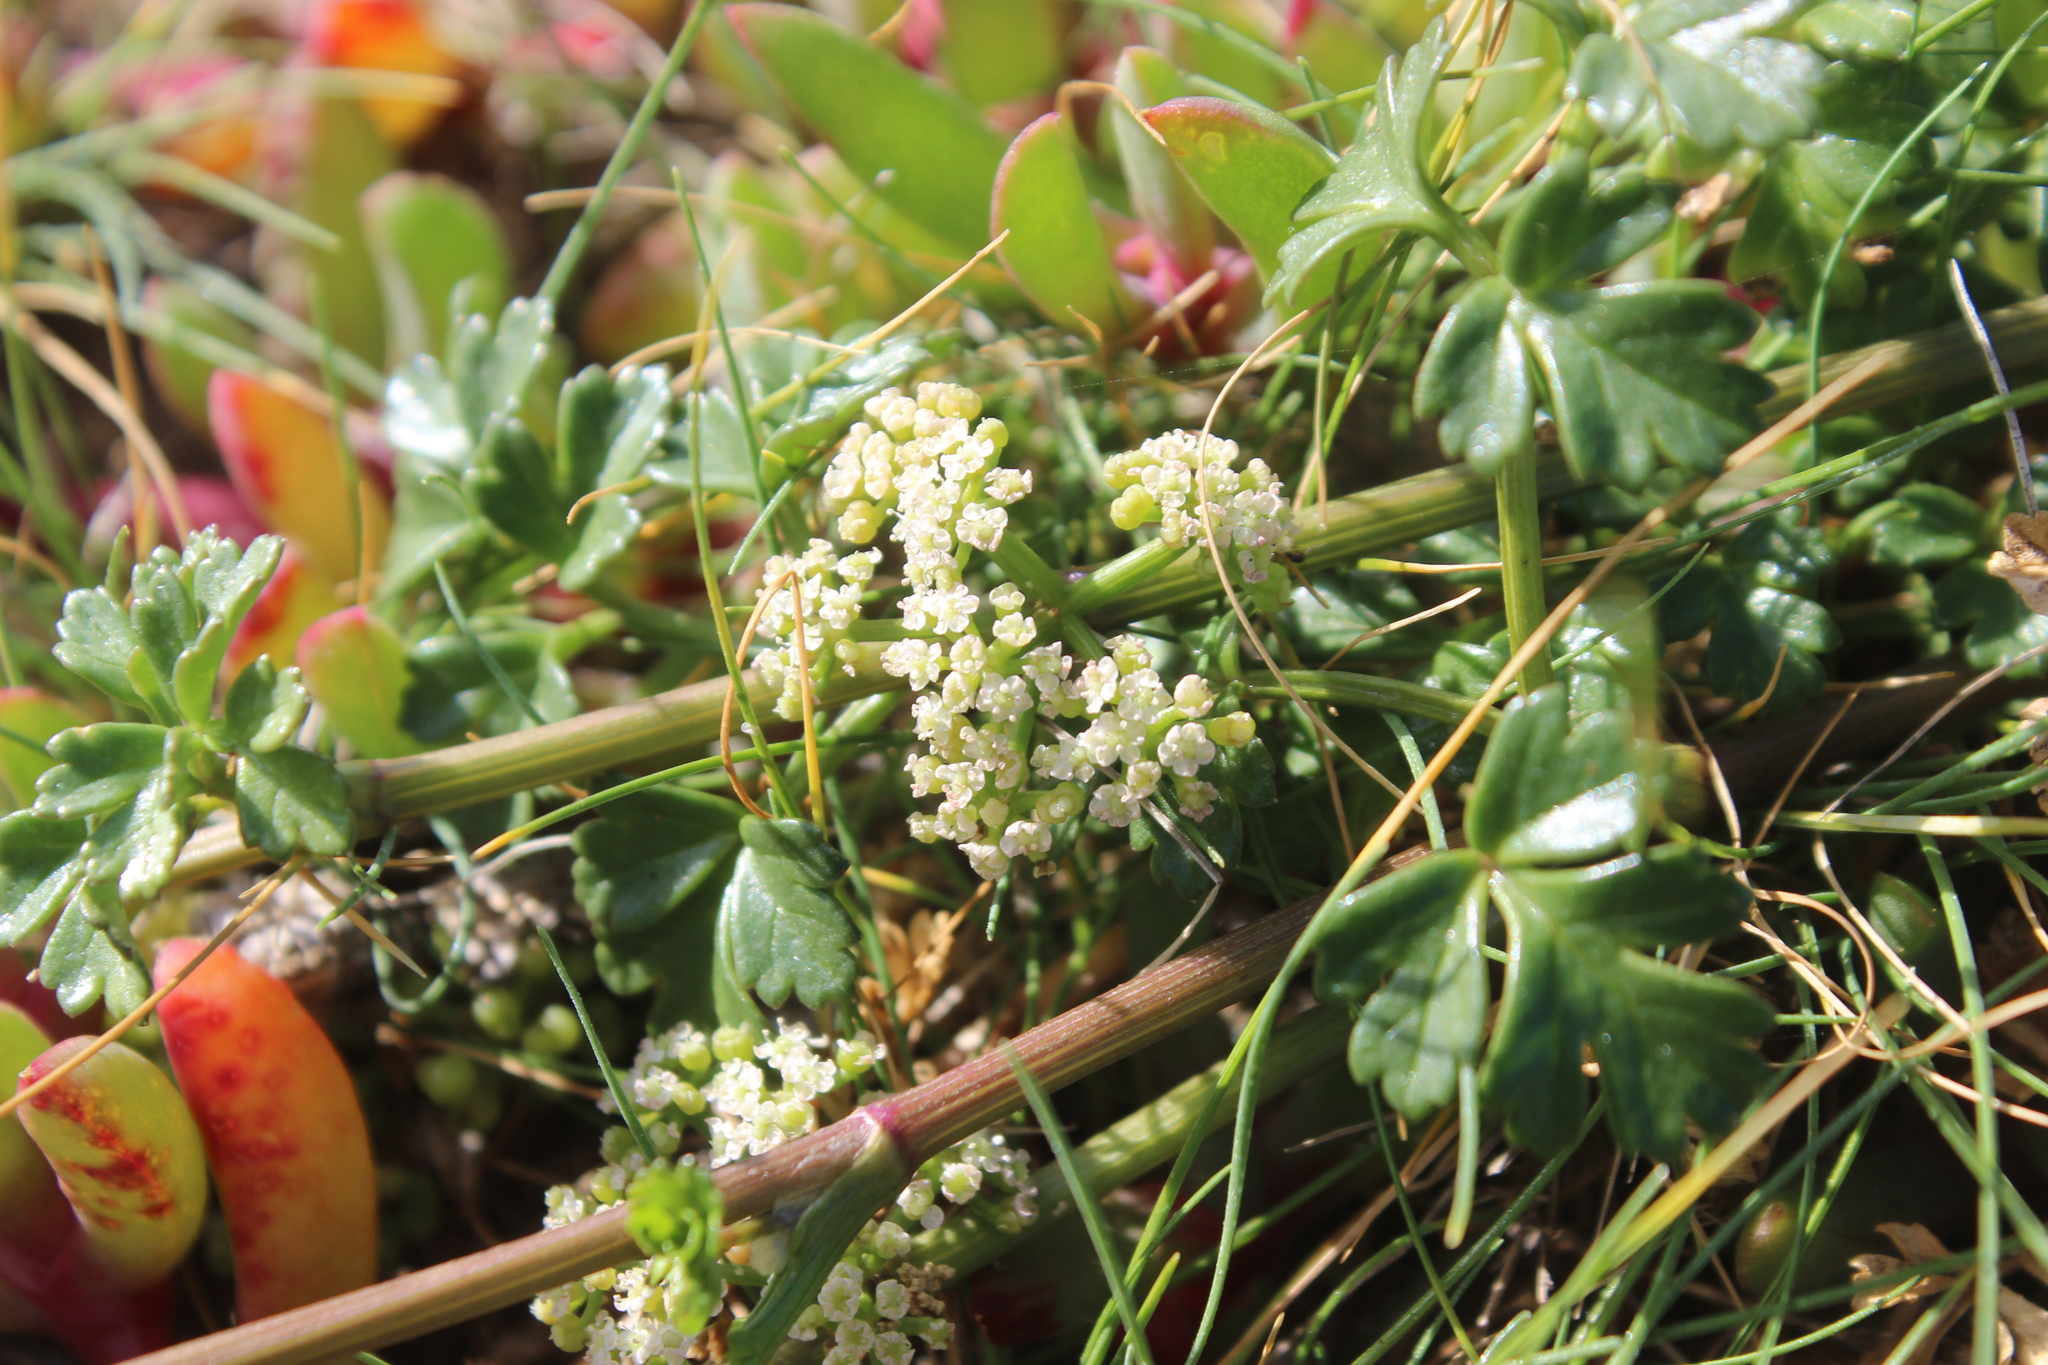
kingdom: Plantae
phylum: Tracheophyta
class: Magnoliopsida
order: Apiales
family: Apiaceae
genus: Apium
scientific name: Apium prostratum
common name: Prostrate marshwort
